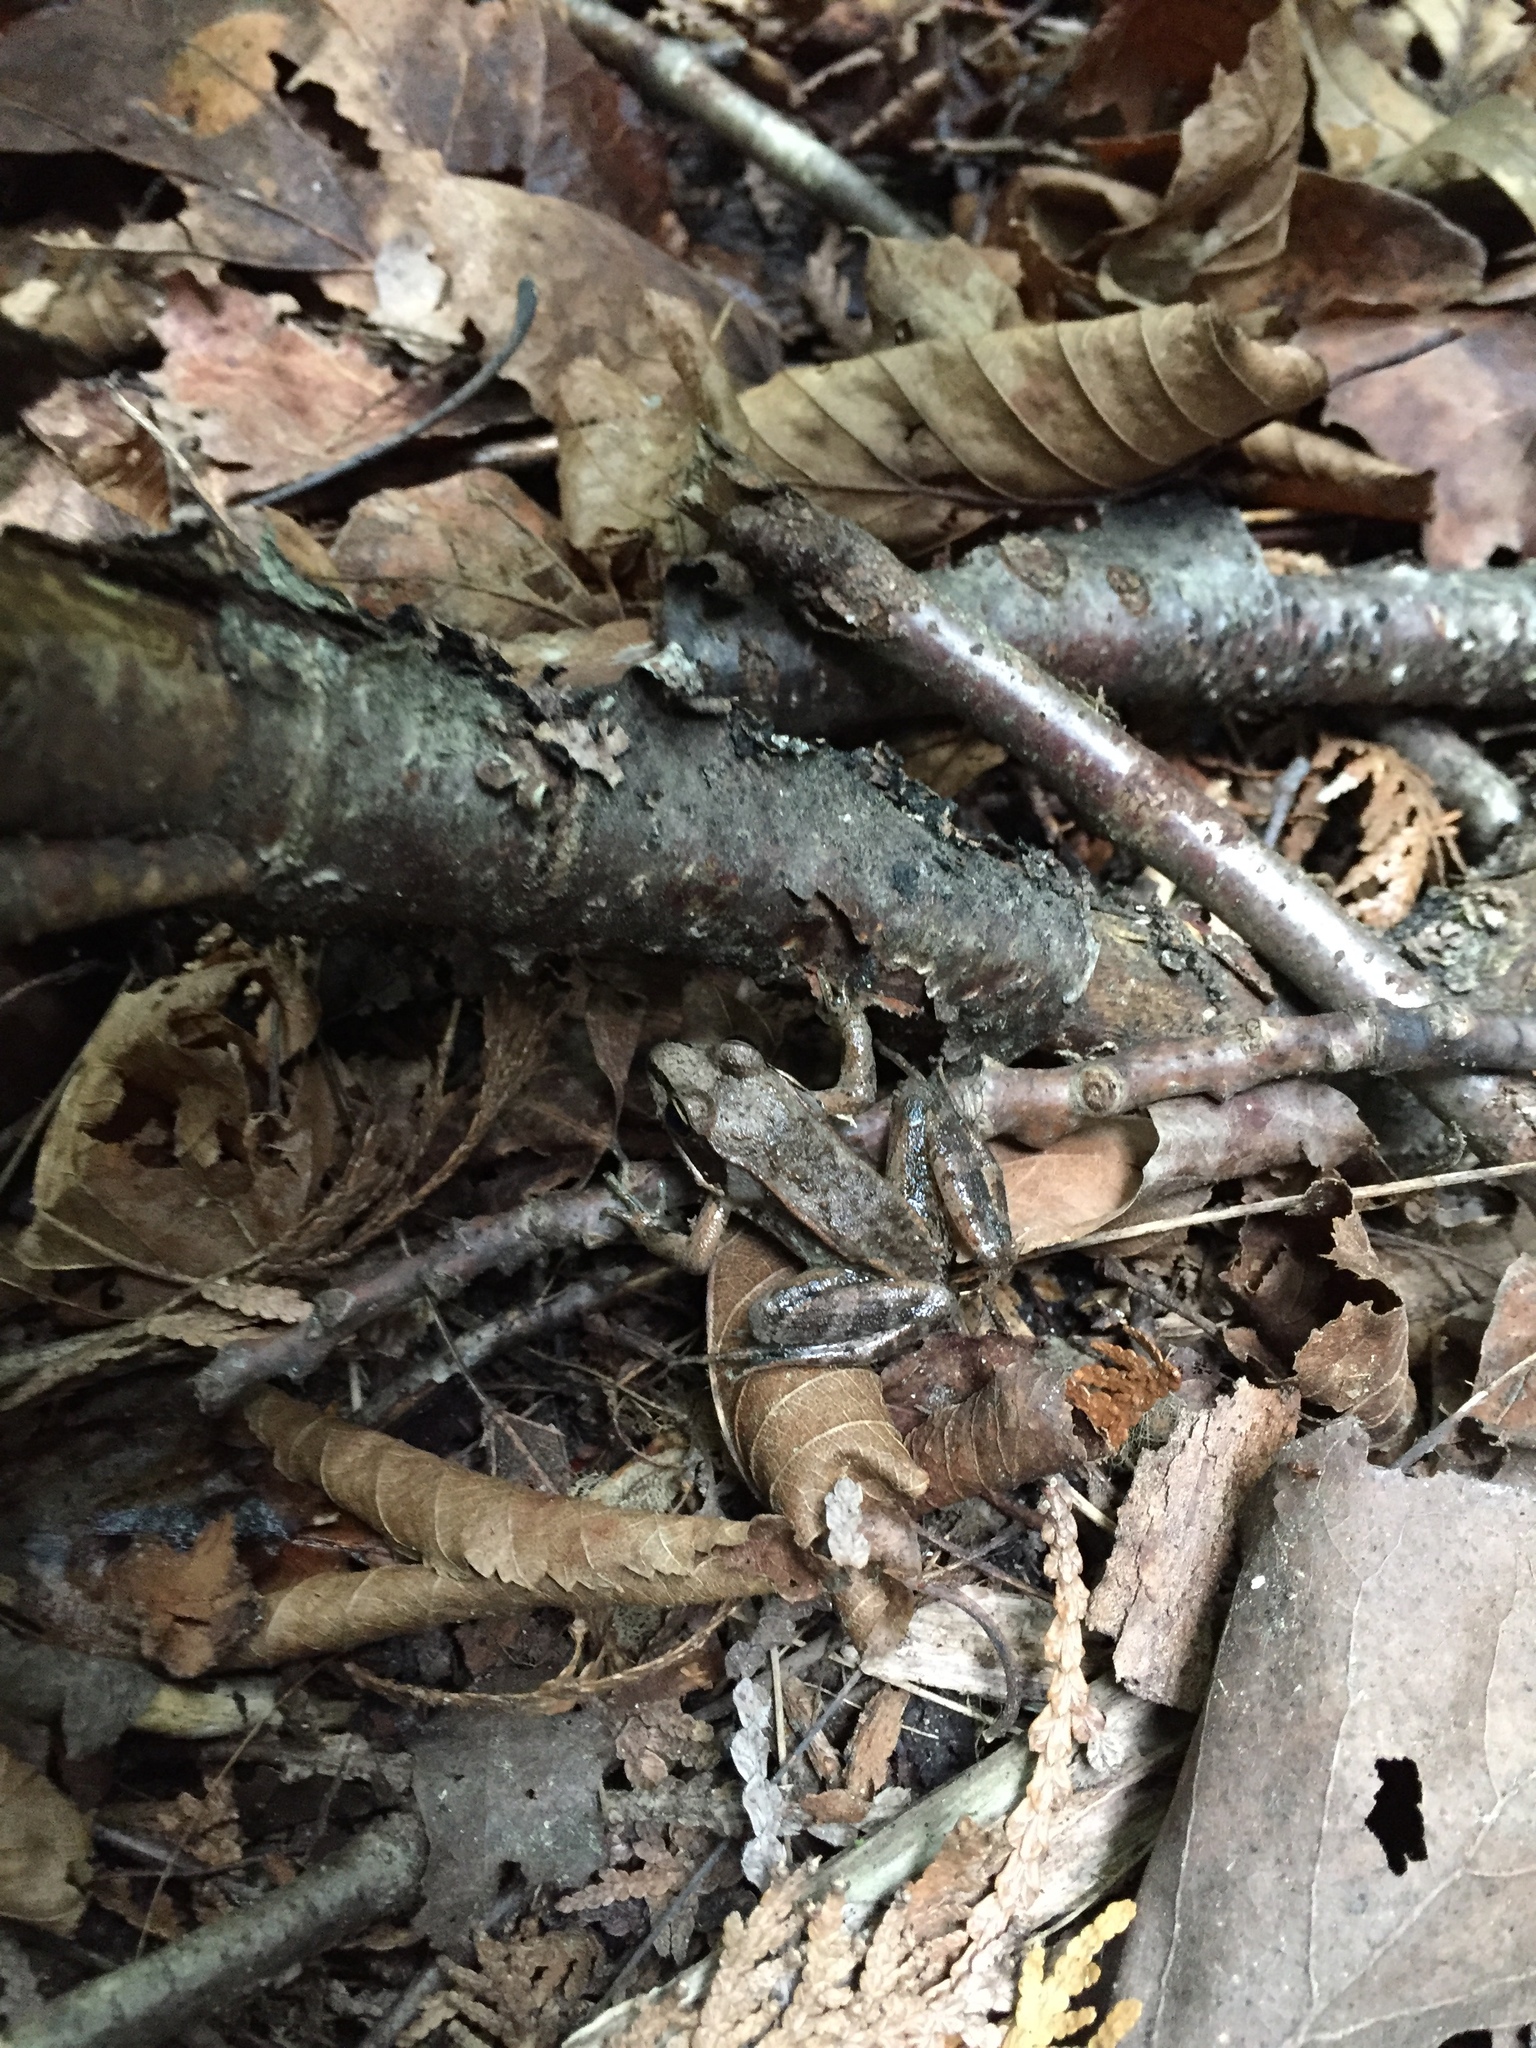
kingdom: Animalia
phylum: Chordata
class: Amphibia
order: Anura
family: Ranidae
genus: Lithobates
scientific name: Lithobates sylvaticus
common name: Wood frog
